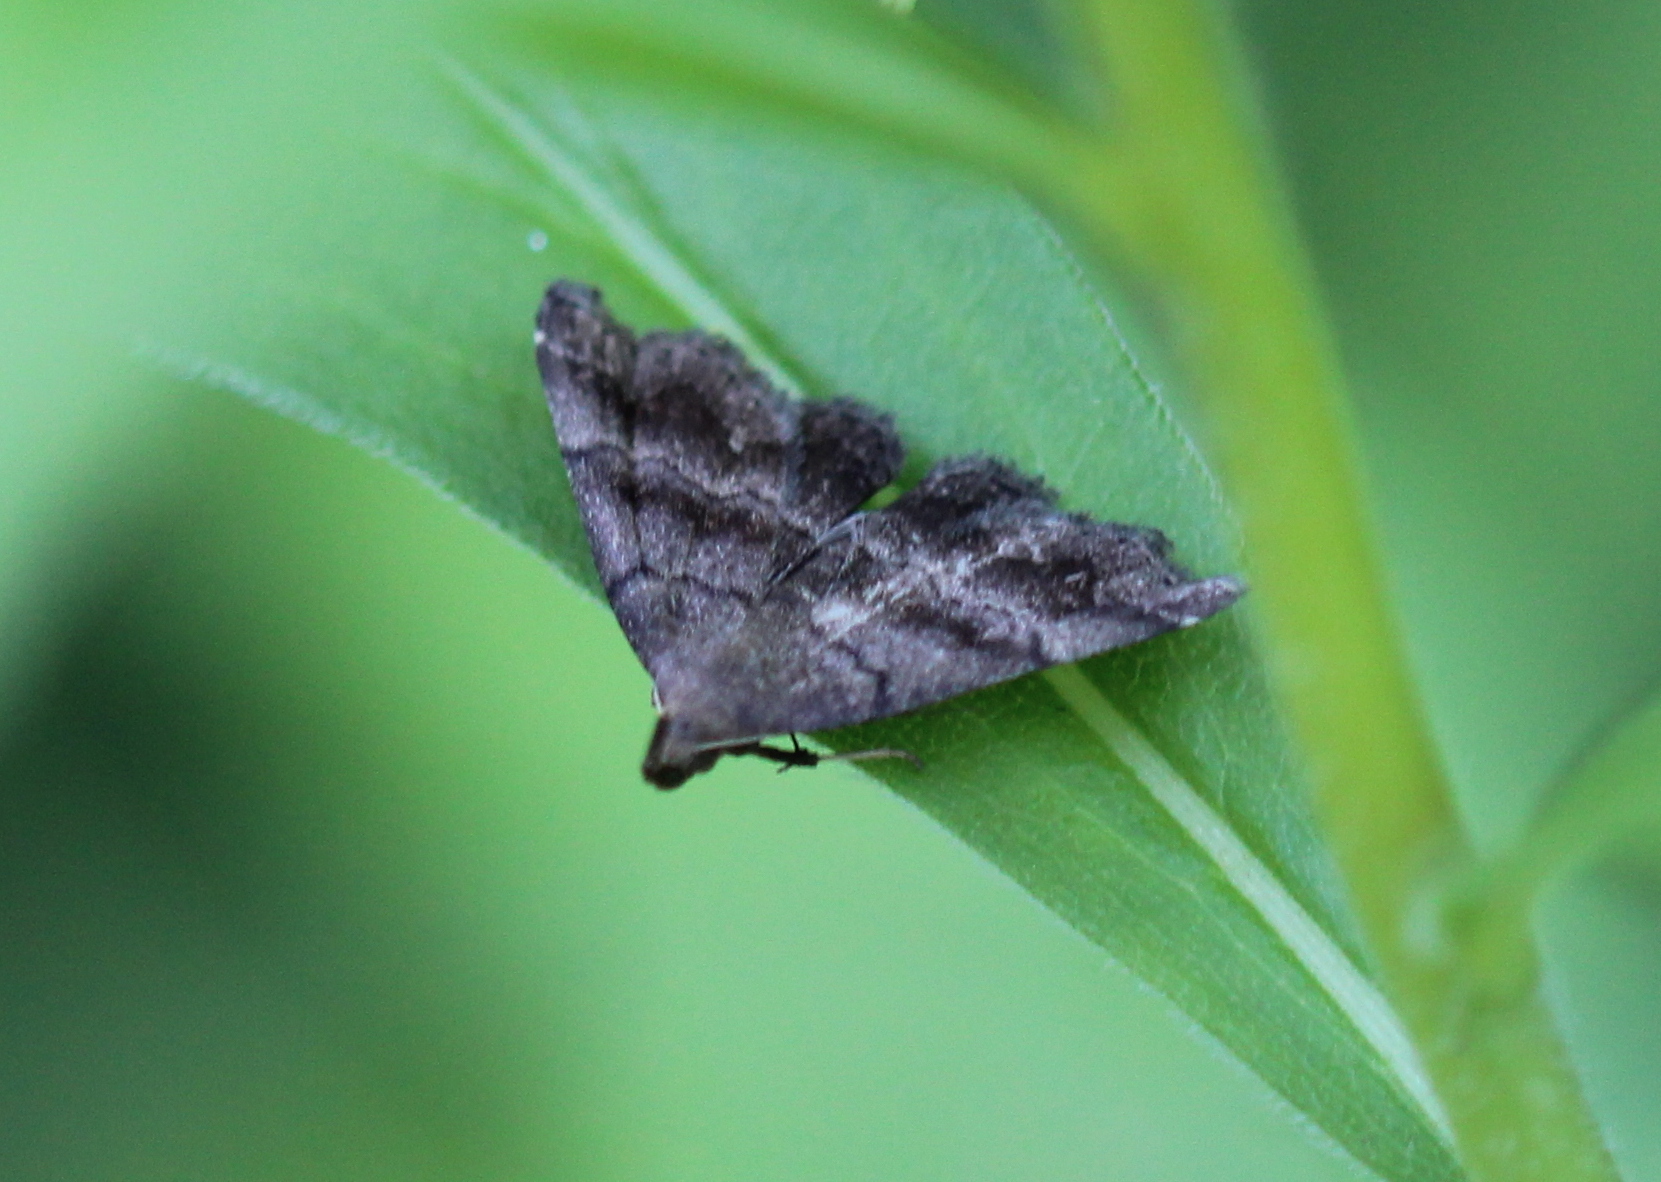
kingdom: Animalia
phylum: Arthropoda
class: Insecta
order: Lepidoptera
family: Erebidae
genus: Phalaenostola
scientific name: Phalaenostola larentioides
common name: Black-banded owlet
